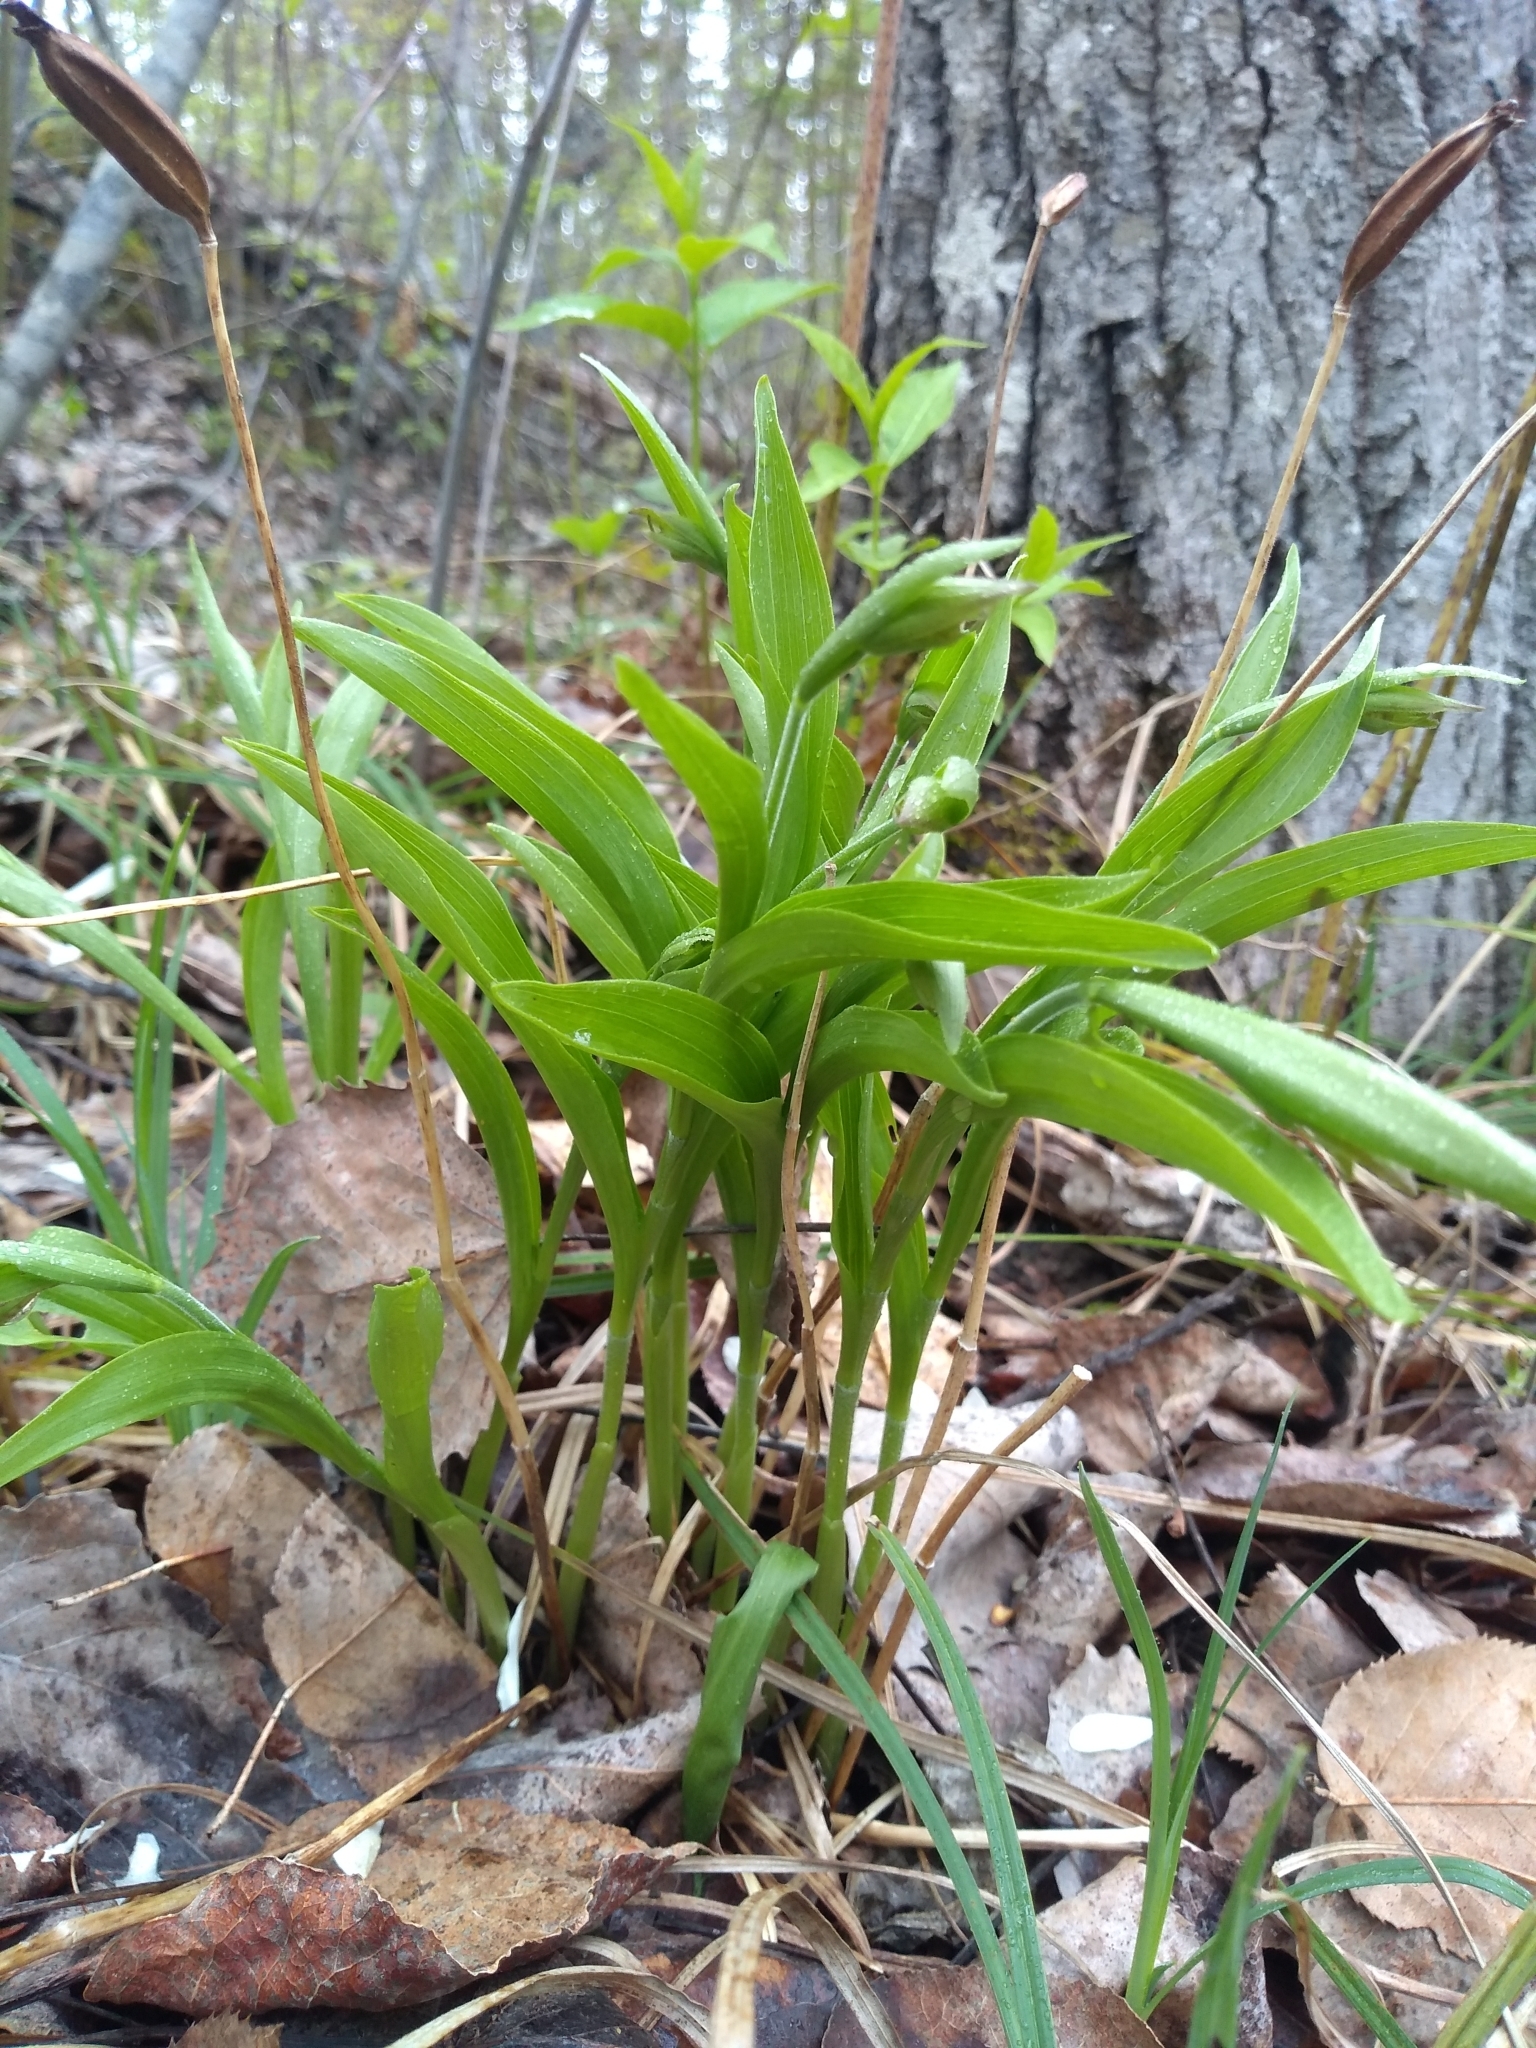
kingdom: Plantae
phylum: Tracheophyta
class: Liliopsida
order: Asparagales
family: Orchidaceae
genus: Cypripedium
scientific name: Cypripedium arietinum
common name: Ram's-head
